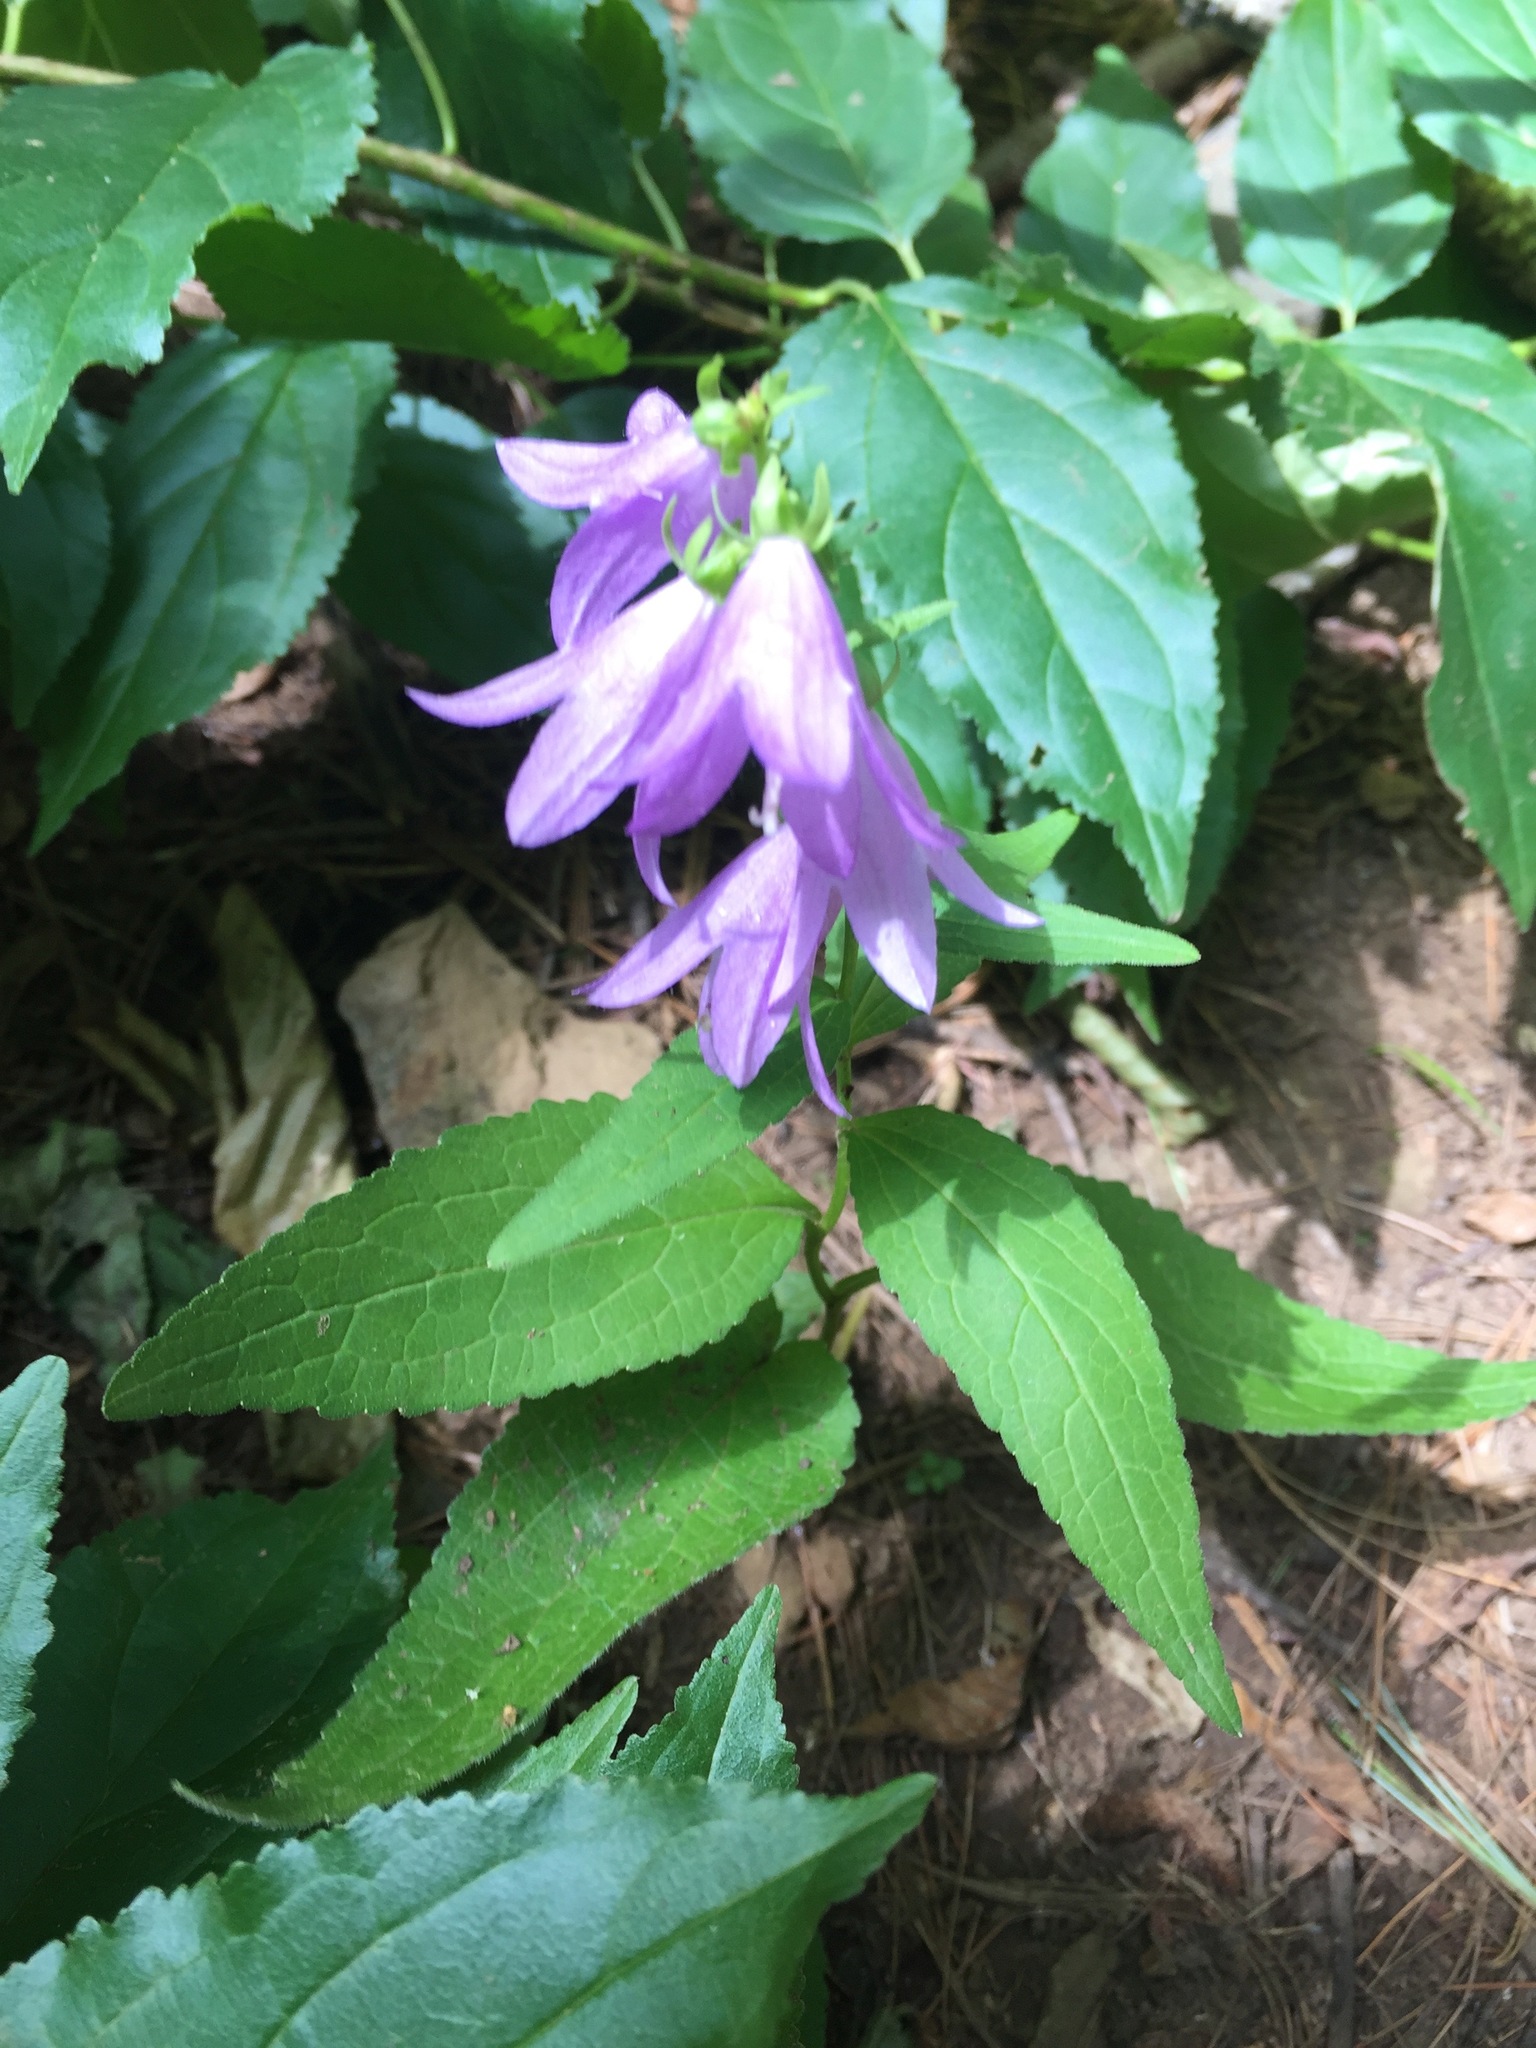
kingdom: Plantae
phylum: Tracheophyta
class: Magnoliopsida
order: Asterales
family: Campanulaceae
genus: Campanula
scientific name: Campanula rapunculoides
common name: Creeping bellflower
